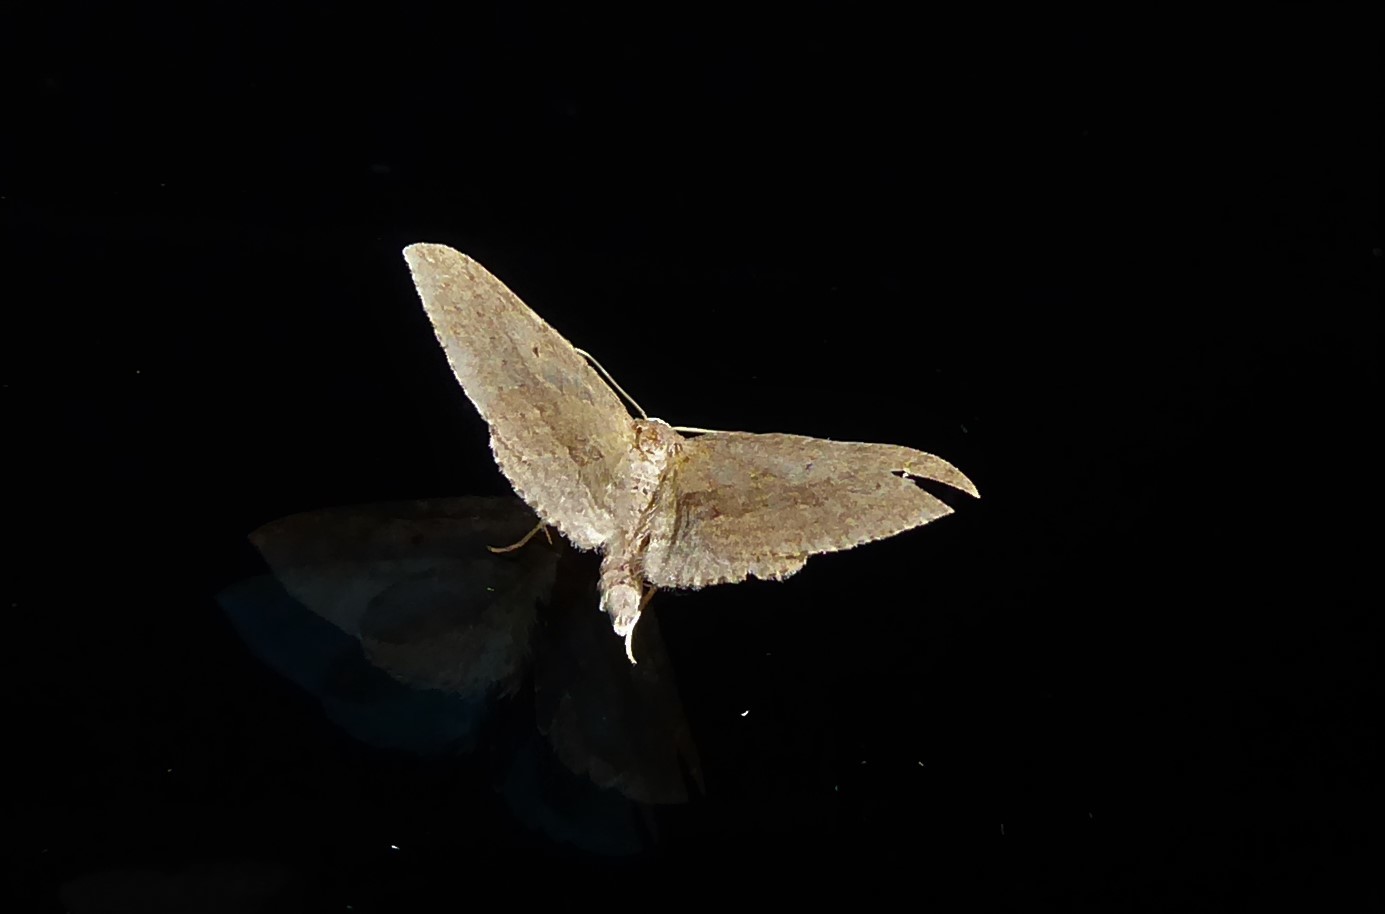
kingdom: Animalia
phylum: Arthropoda
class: Insecta
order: Lepidoptera
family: Geometridae
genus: Poecilasthena
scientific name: Poecilasthena schistaria
